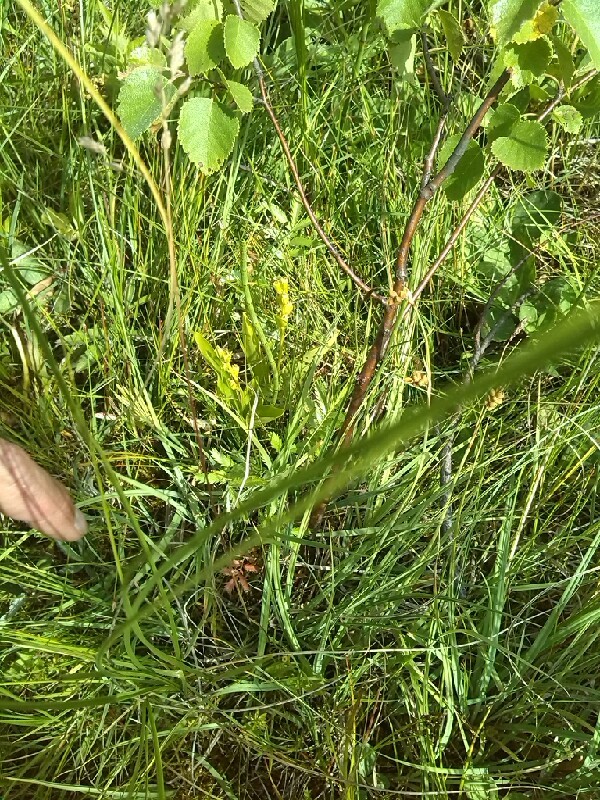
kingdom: Animalia
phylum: Arthropoda
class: Insecta
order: Coleoptera
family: Curculionidae
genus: Liparis
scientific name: Liparis loeselii
